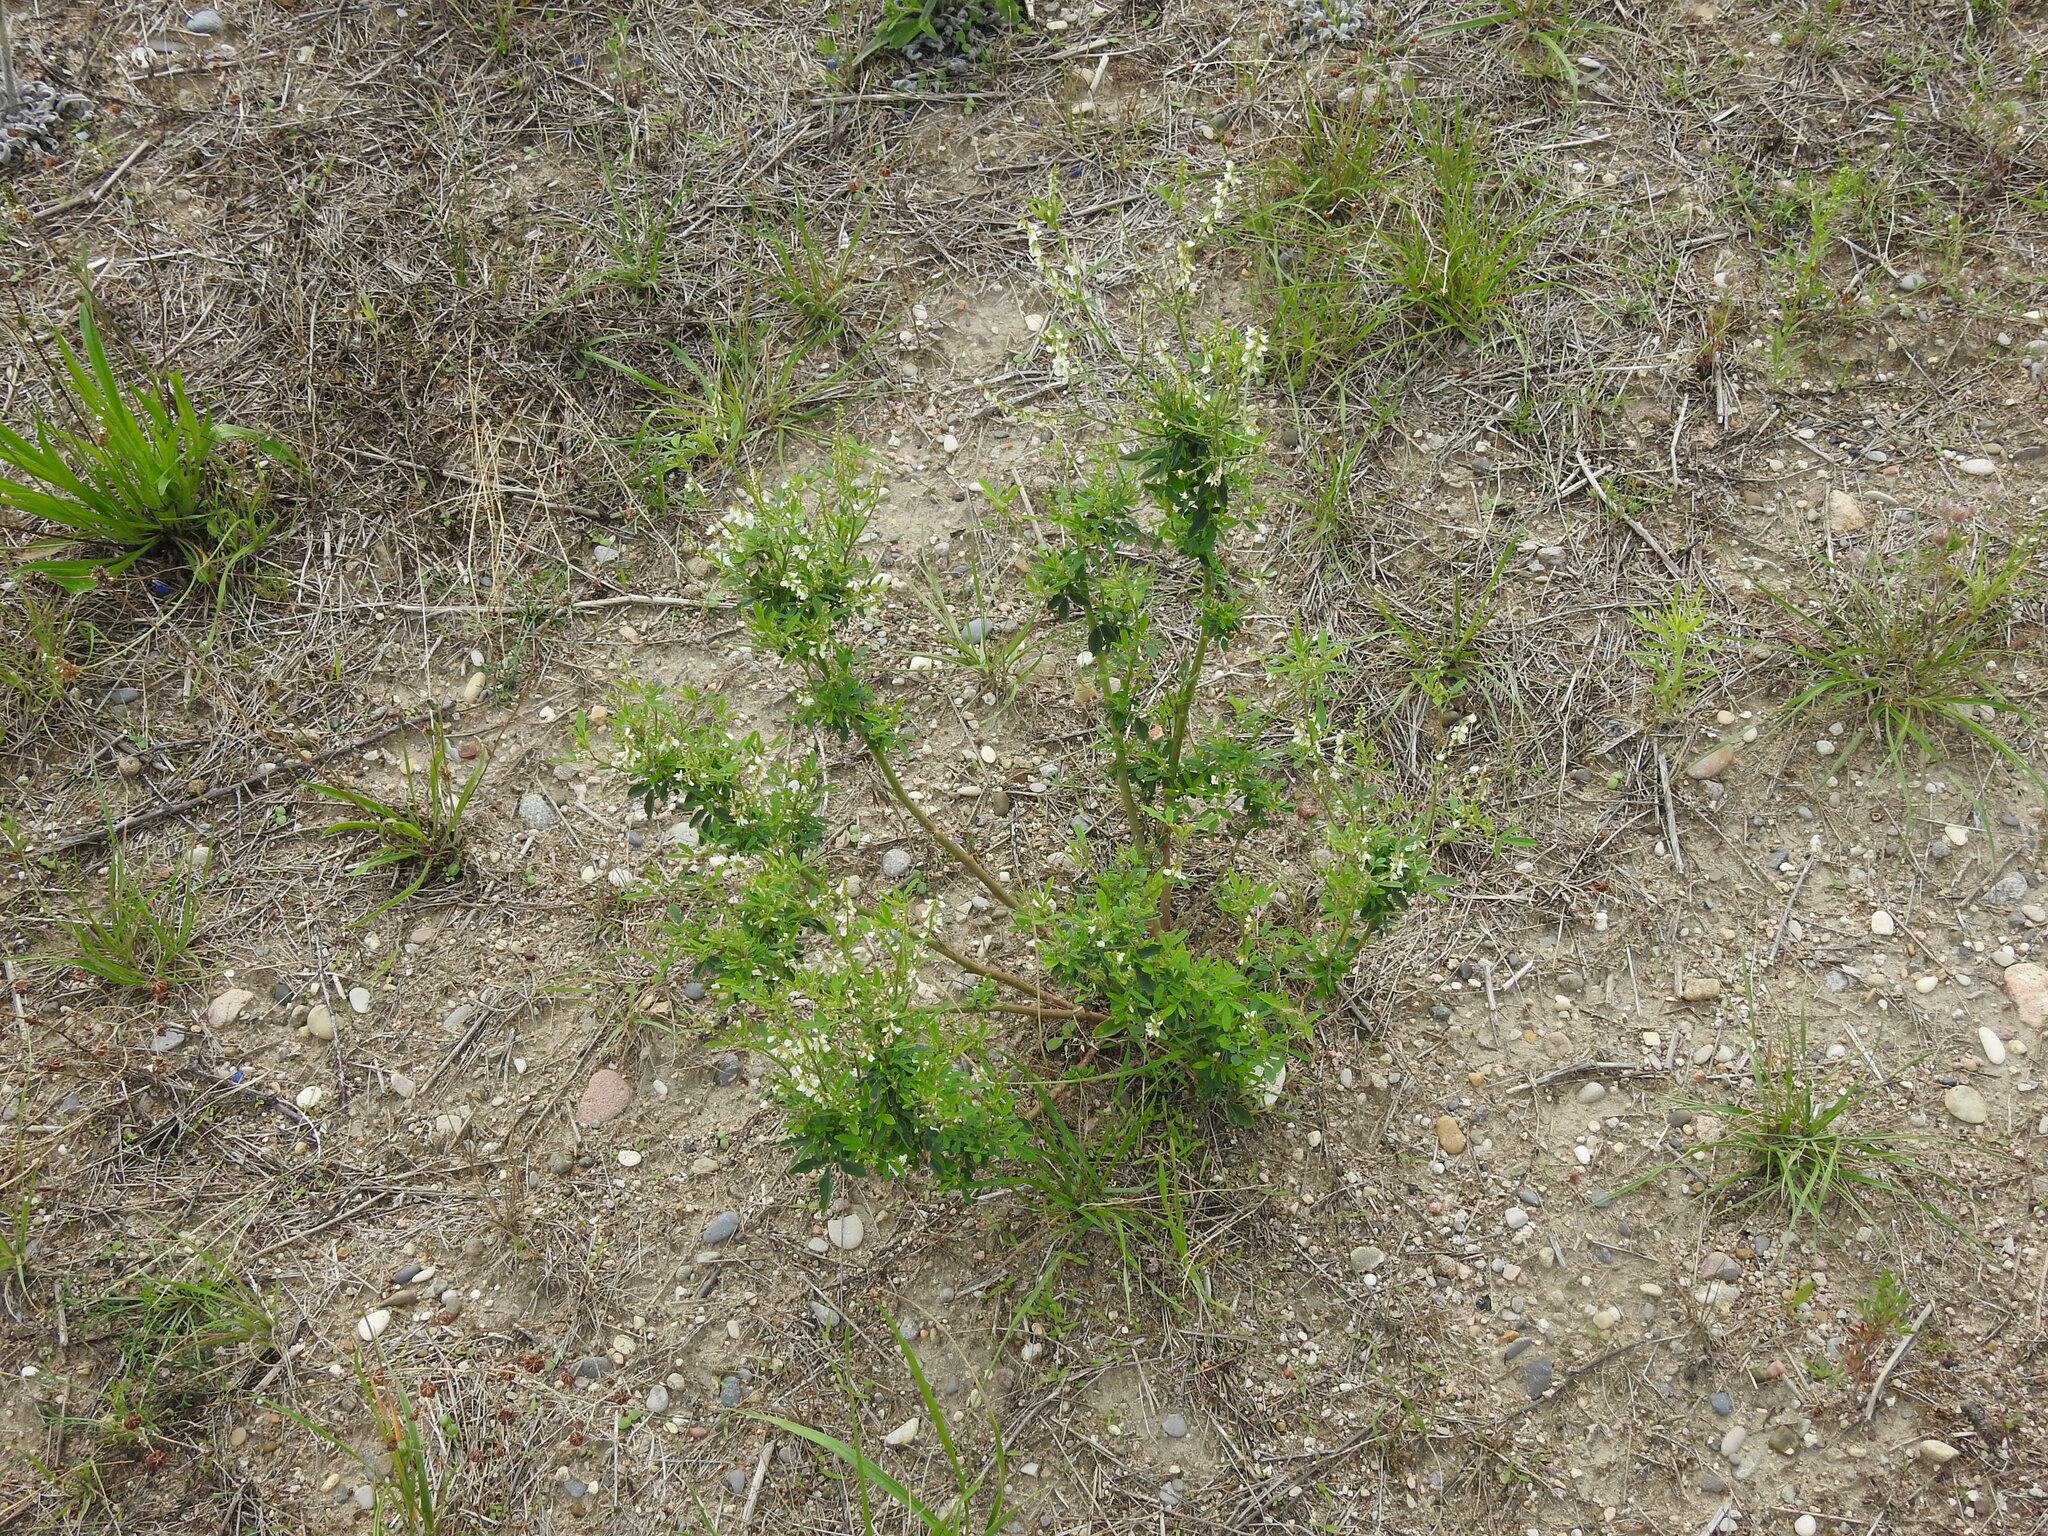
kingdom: Plantae
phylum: Tracheophyta
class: Magnoliopsida
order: Fabales
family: Fabaceae
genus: Melilotus
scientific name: Melilotus albus
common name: White melilot
